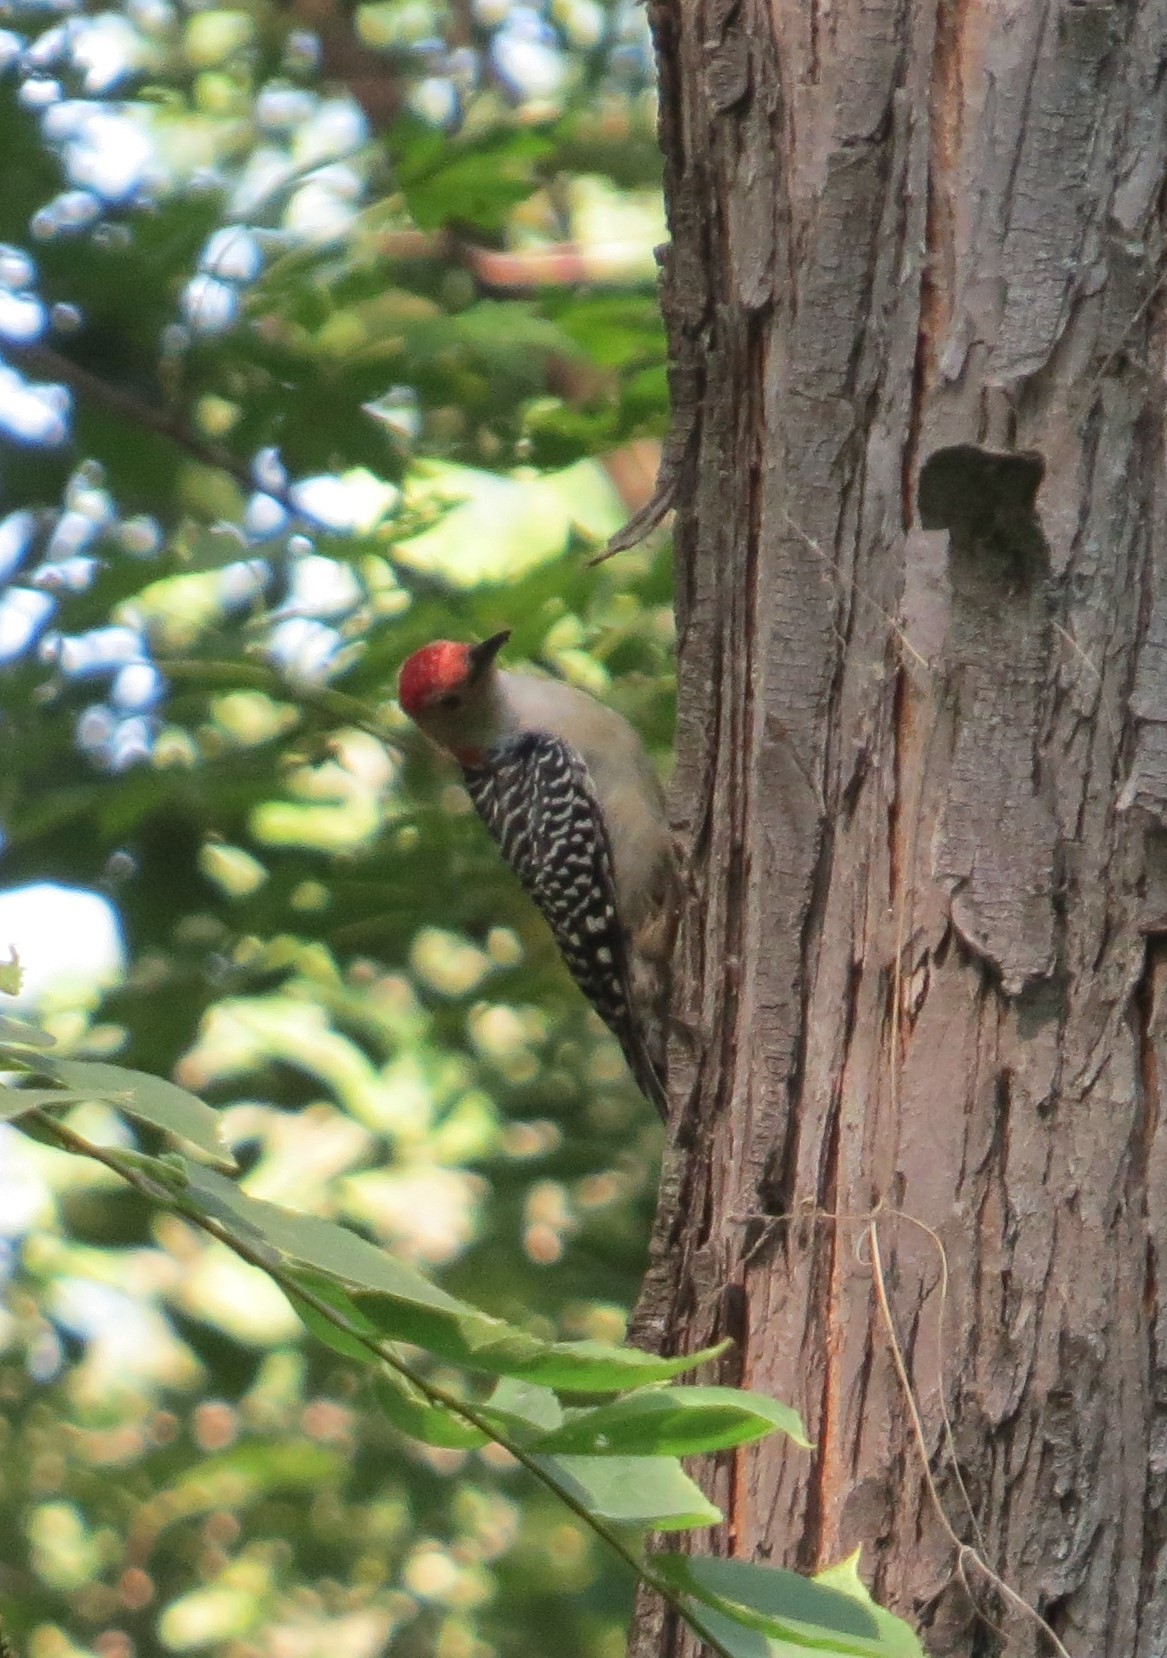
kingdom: Animalia
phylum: Chordata
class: Aves
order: Piciformes
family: Picidae
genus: Melanerpes
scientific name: Melanerpes carolinus
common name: Red-bellied woodpecker
